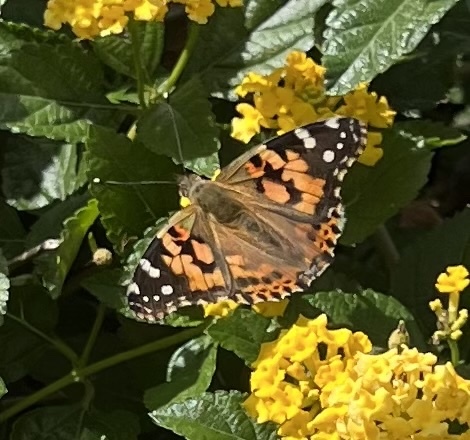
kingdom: Animalia
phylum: Arthropoda
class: Insecta
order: Lepidoptera
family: Nymphalidae
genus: Vanessa
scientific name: Vanessa cardui
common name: Painted lady
